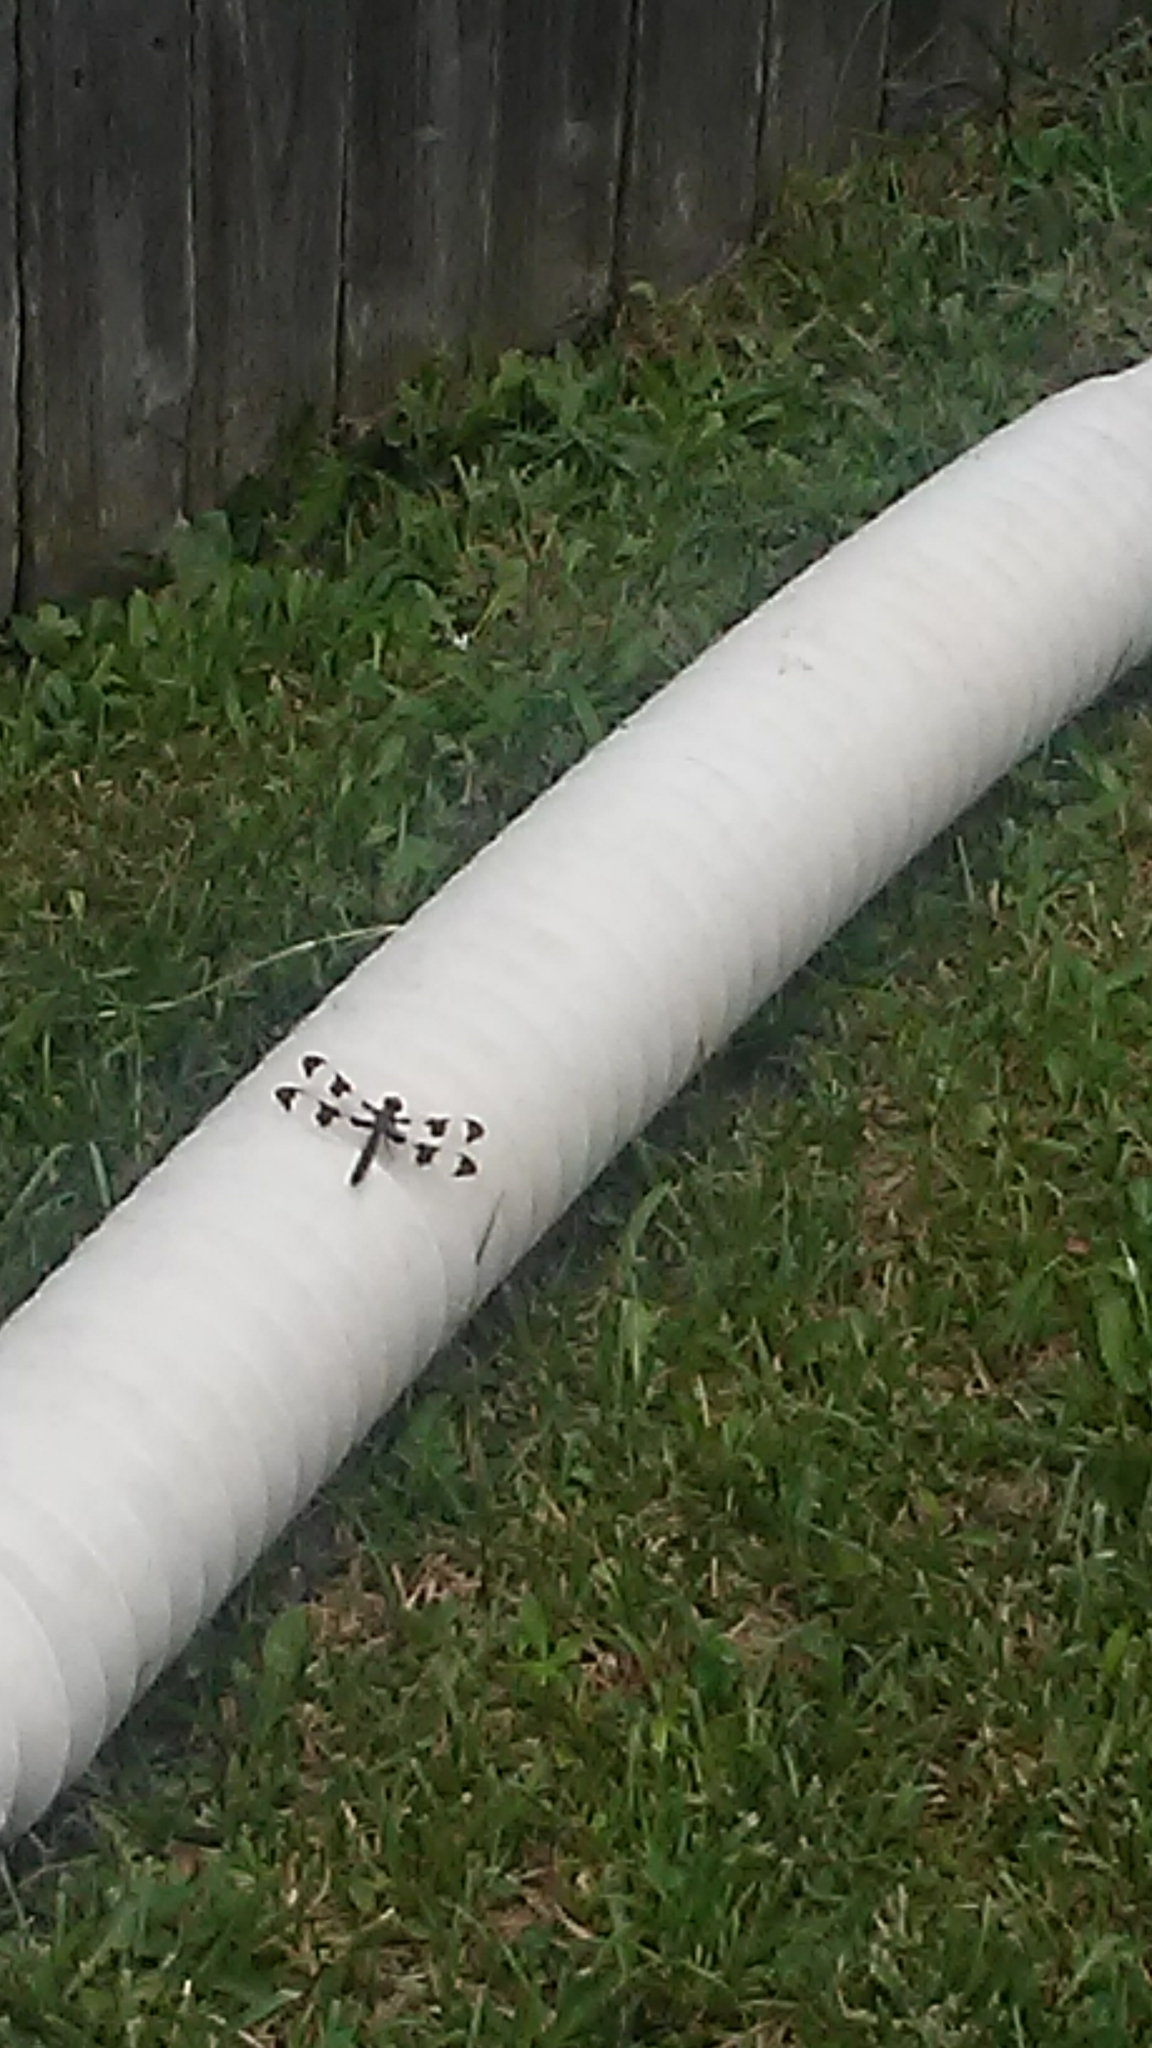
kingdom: Animalia
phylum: Arthropoda
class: Insecta
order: Odonata
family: Libellulidae
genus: Plathemis
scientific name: Plathemis lydia
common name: Common whitetail
